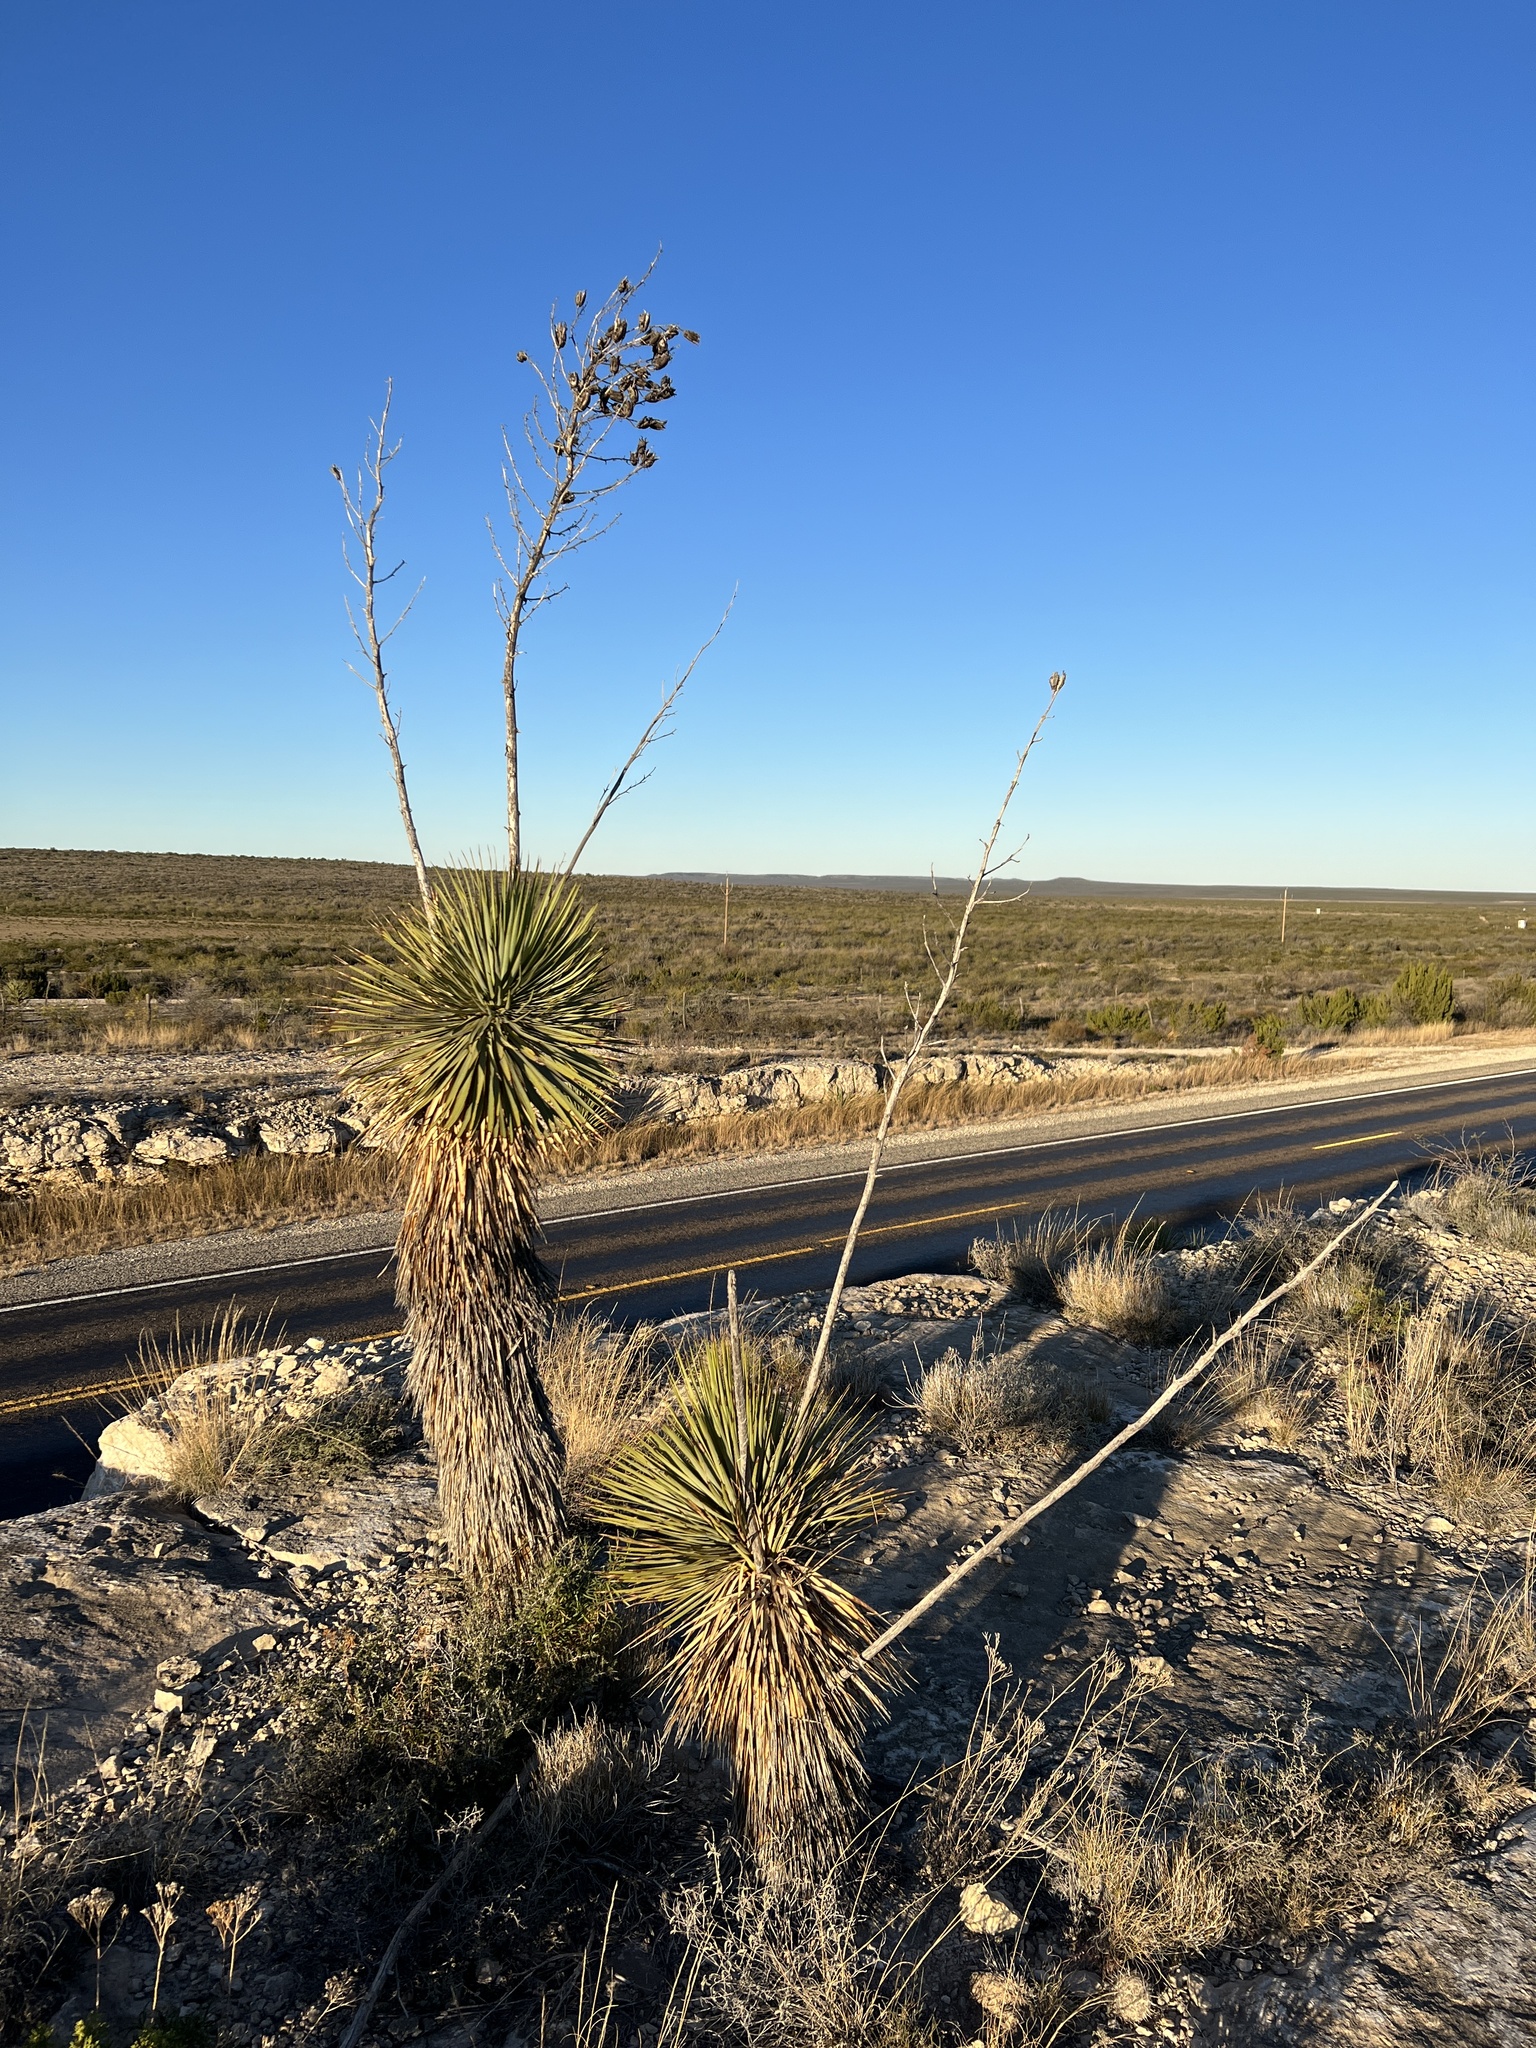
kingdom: Plantae
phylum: Tracheophyta
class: Liliopsida
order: Asparagales
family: Asparagaceae
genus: Yucca
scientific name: Yucca thompsoniana
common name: Trans-pecos yucca
